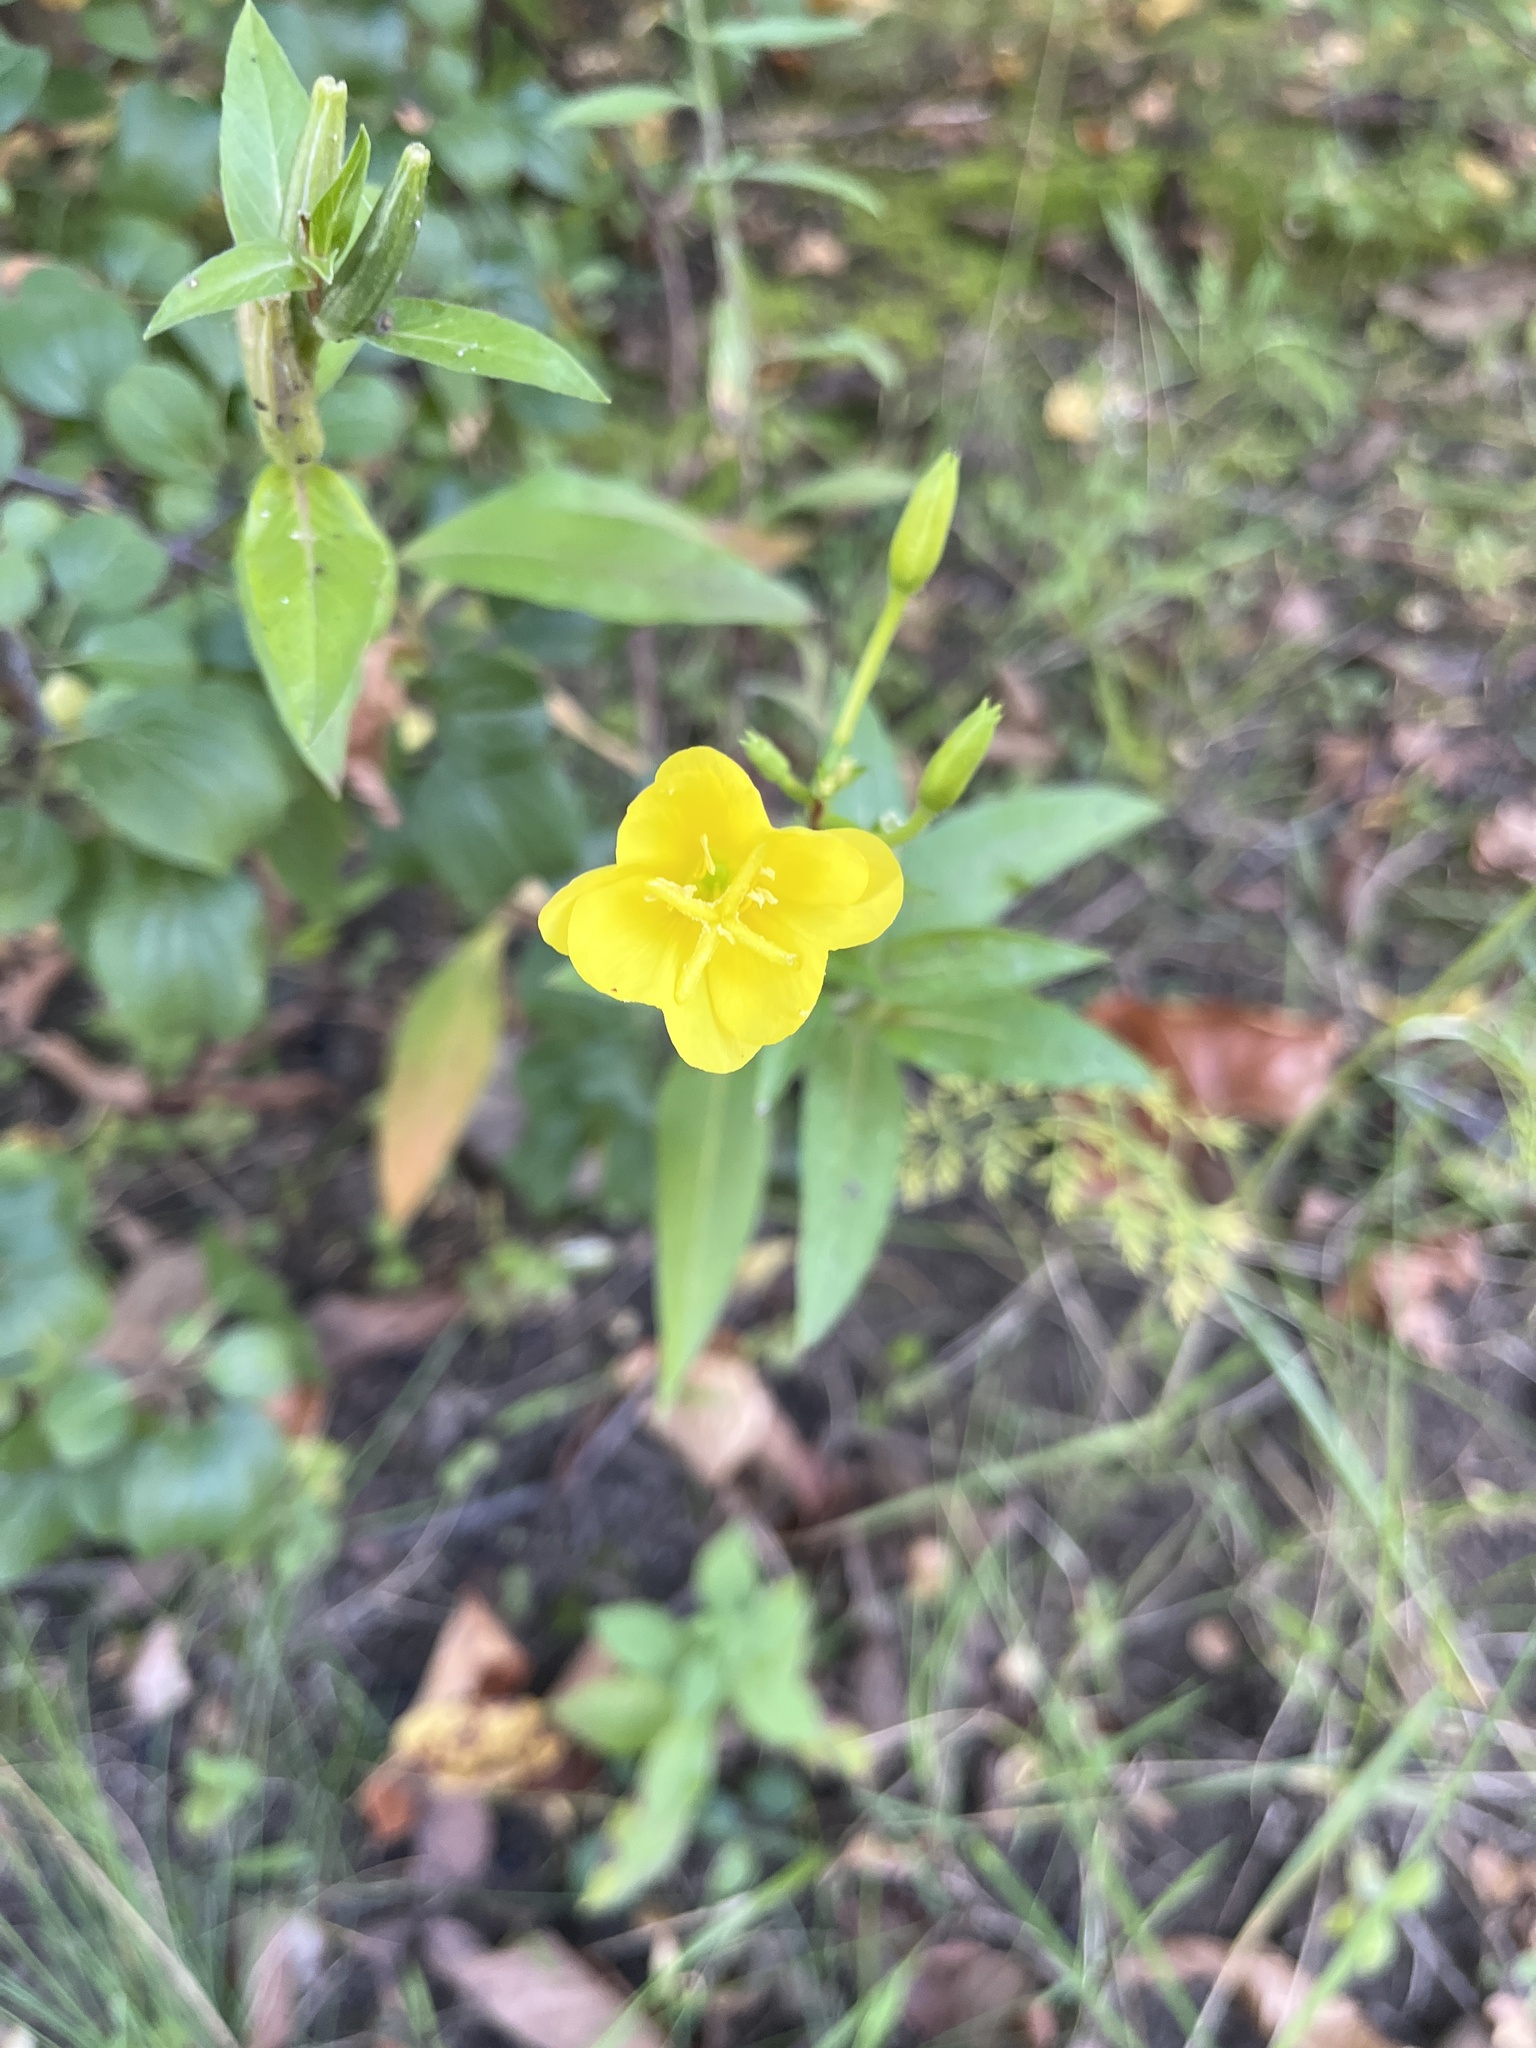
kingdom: Plantae
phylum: Tracheophyta
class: Magnoliopsida
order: Myrtales
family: Onagraceae
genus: Oenothera
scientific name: Oenothera biennis
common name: Common evening-primrose
